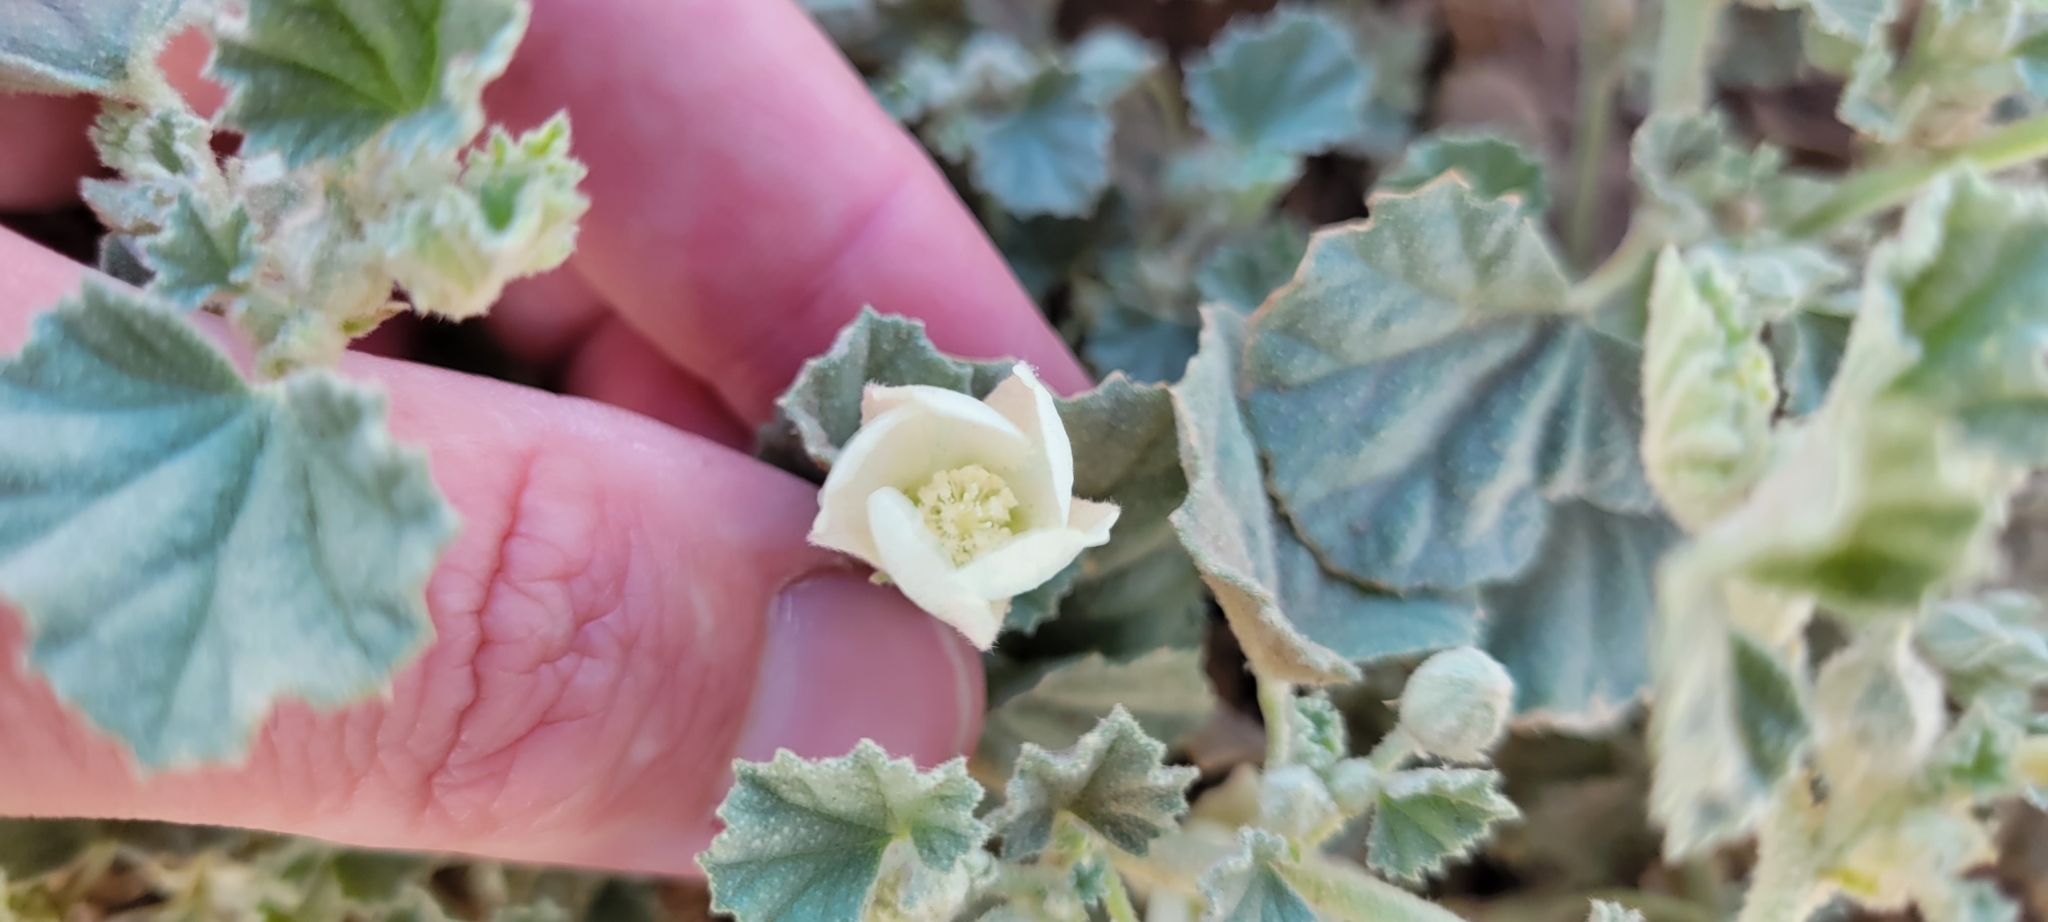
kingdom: Plantae
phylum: Tracheophyta
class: Magnoliopsida
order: Malvales
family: Malvaceae
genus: Malvella
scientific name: Malvella leprosa
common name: Alkali-mallow
